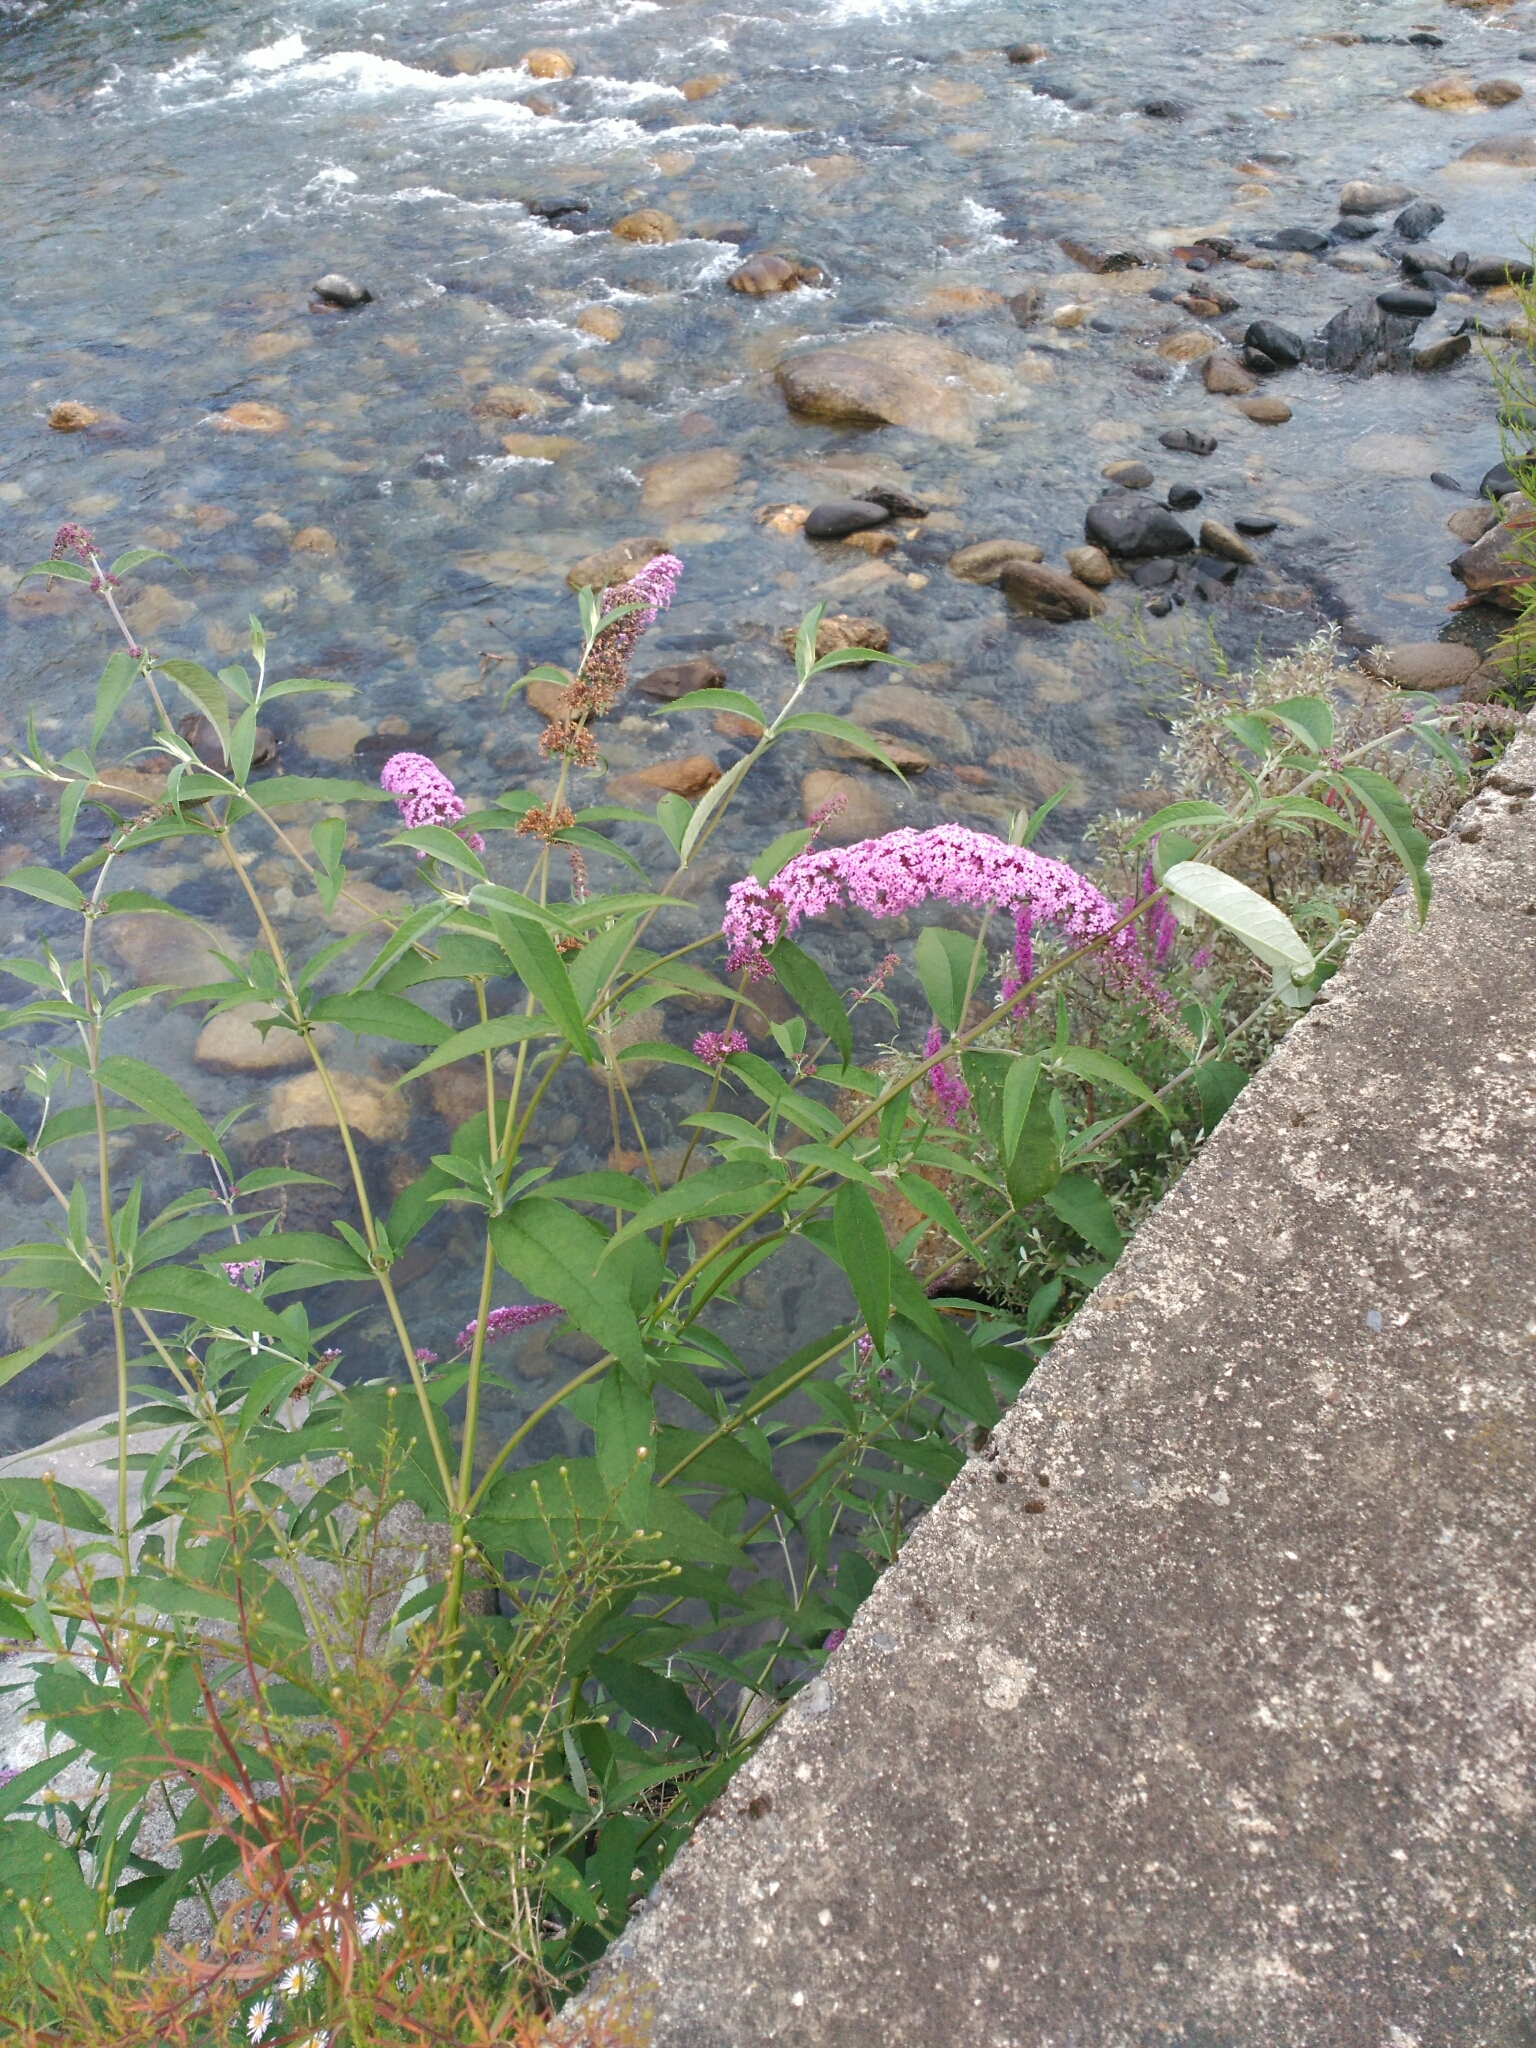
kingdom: Plantae
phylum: Tracheophyta
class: Magnoliopsida
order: Lamiales
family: Scrophulariaceae
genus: Buddleja
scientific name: Buddleja davidii
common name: Butterfly-bush
